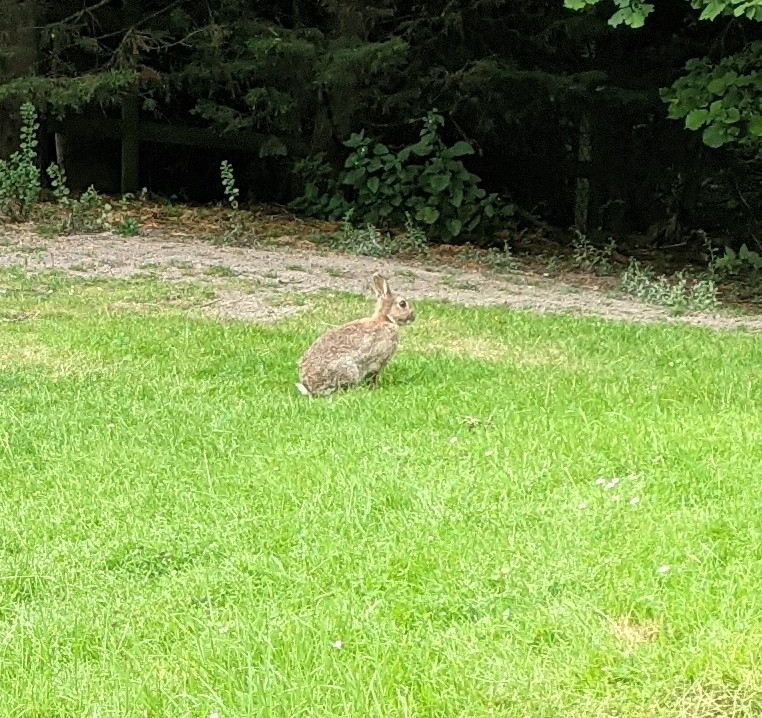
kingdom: Animalia
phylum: Chordata
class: Mammalia
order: Lagomorpha
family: Leporidae
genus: Oryctolagus
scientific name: Oryctolagus cuniculus
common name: European rabbit
